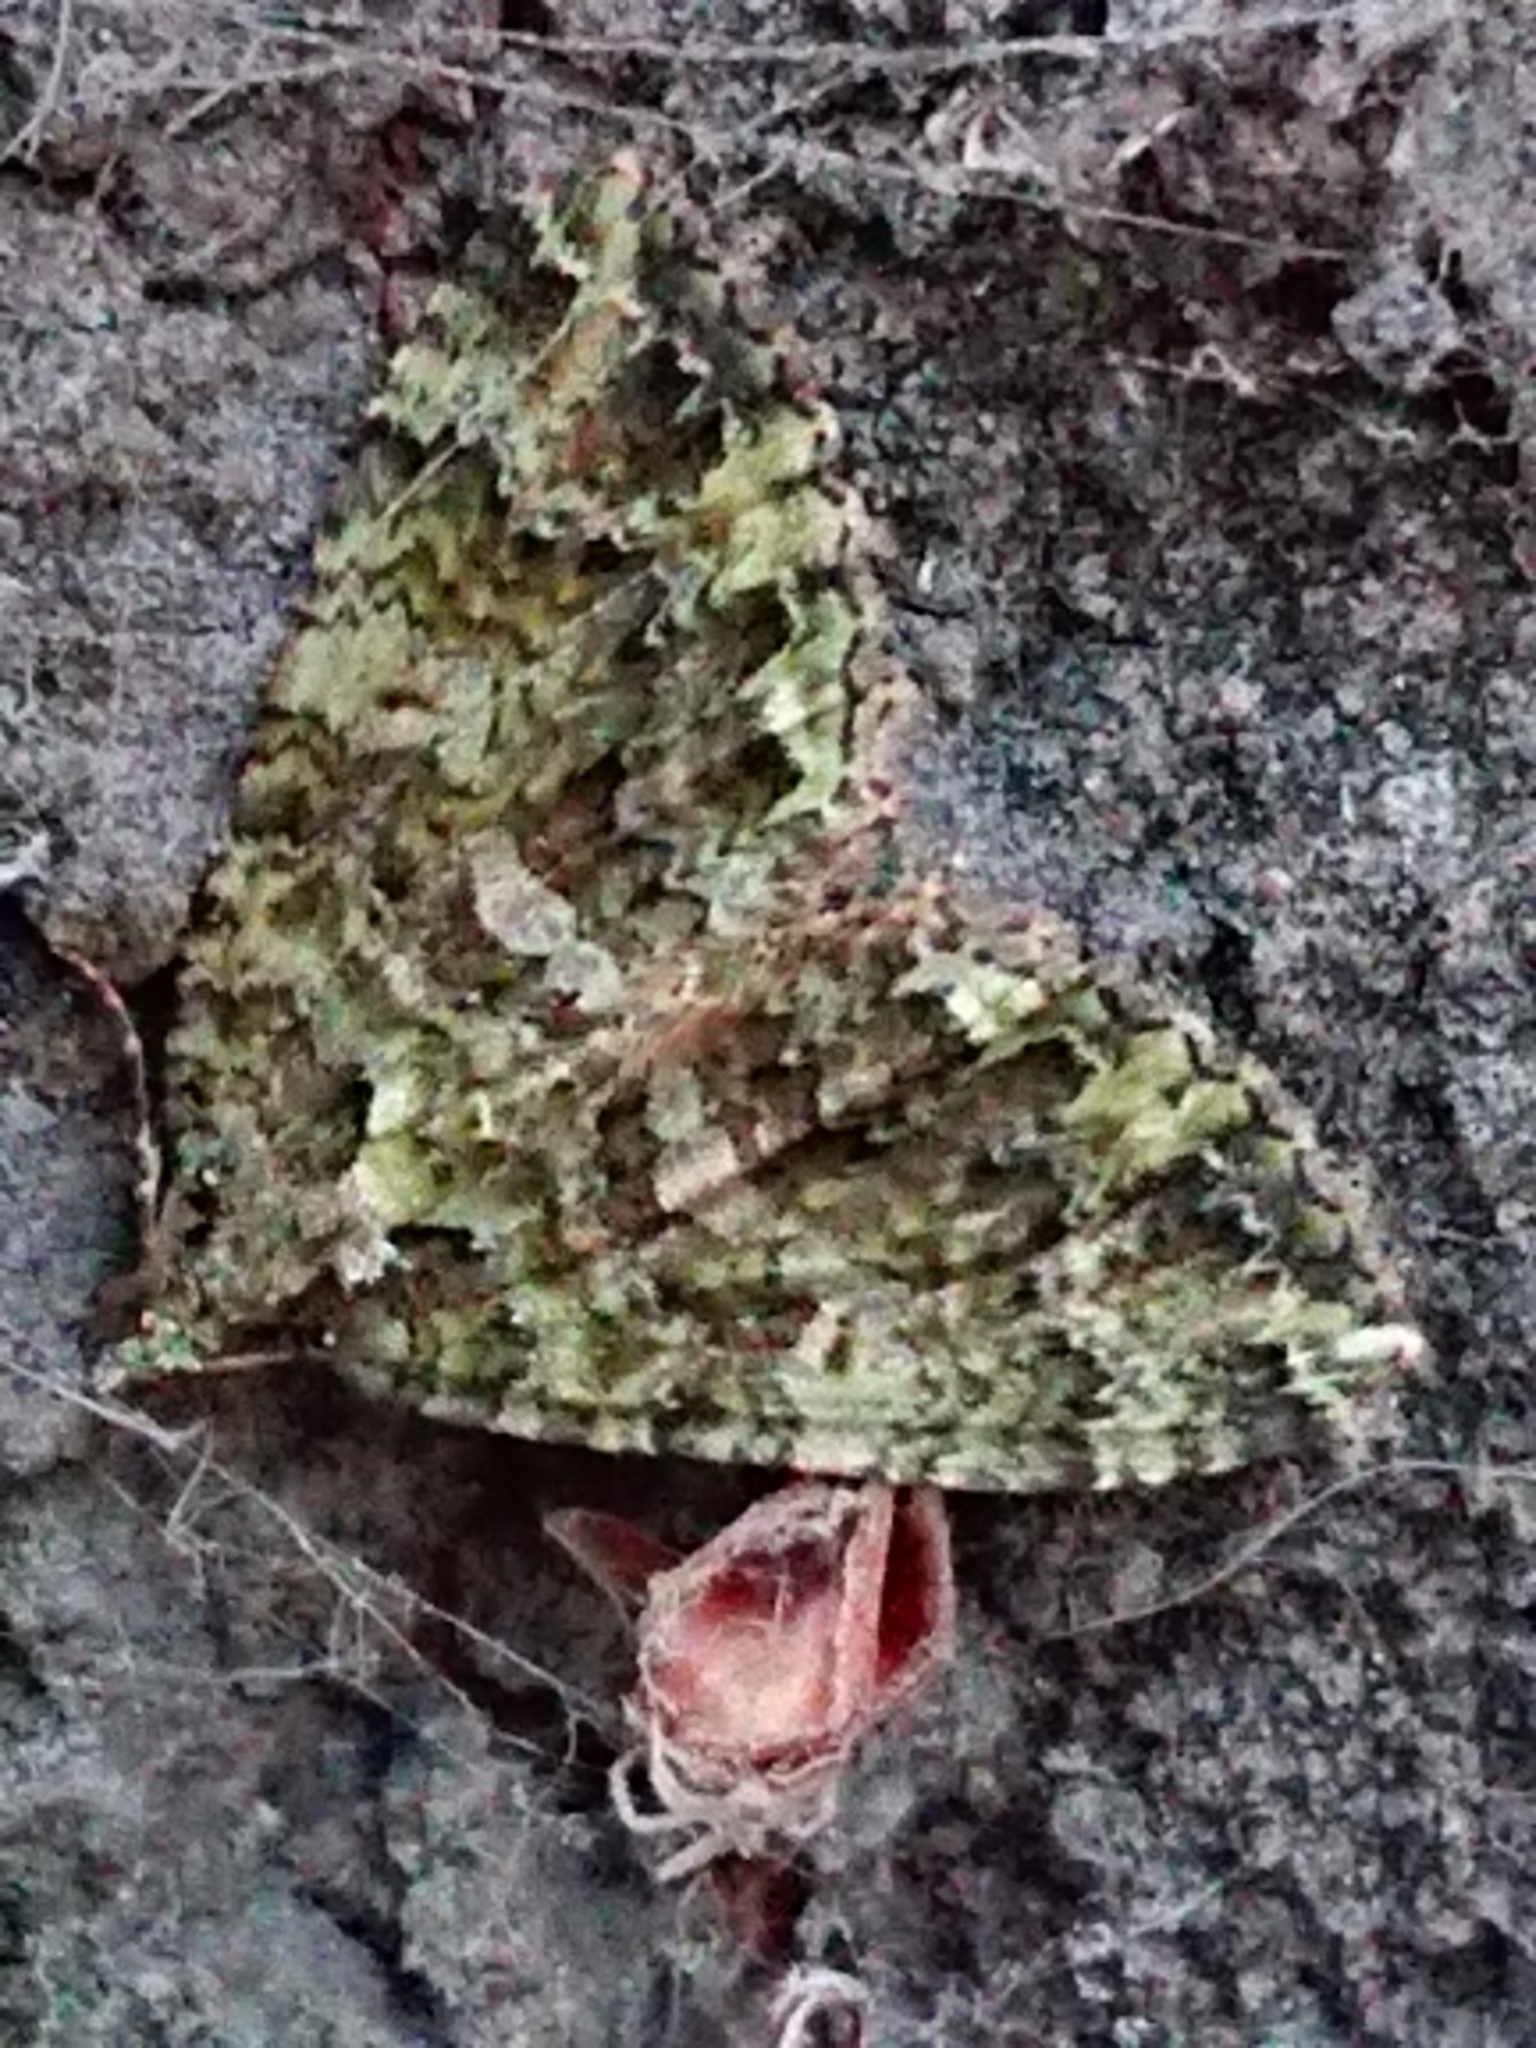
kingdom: Animalia
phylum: Arthropoda
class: Insecta
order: Lepidoptera
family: Geometridae
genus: Austrocidaria
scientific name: Austrocidaria similata
